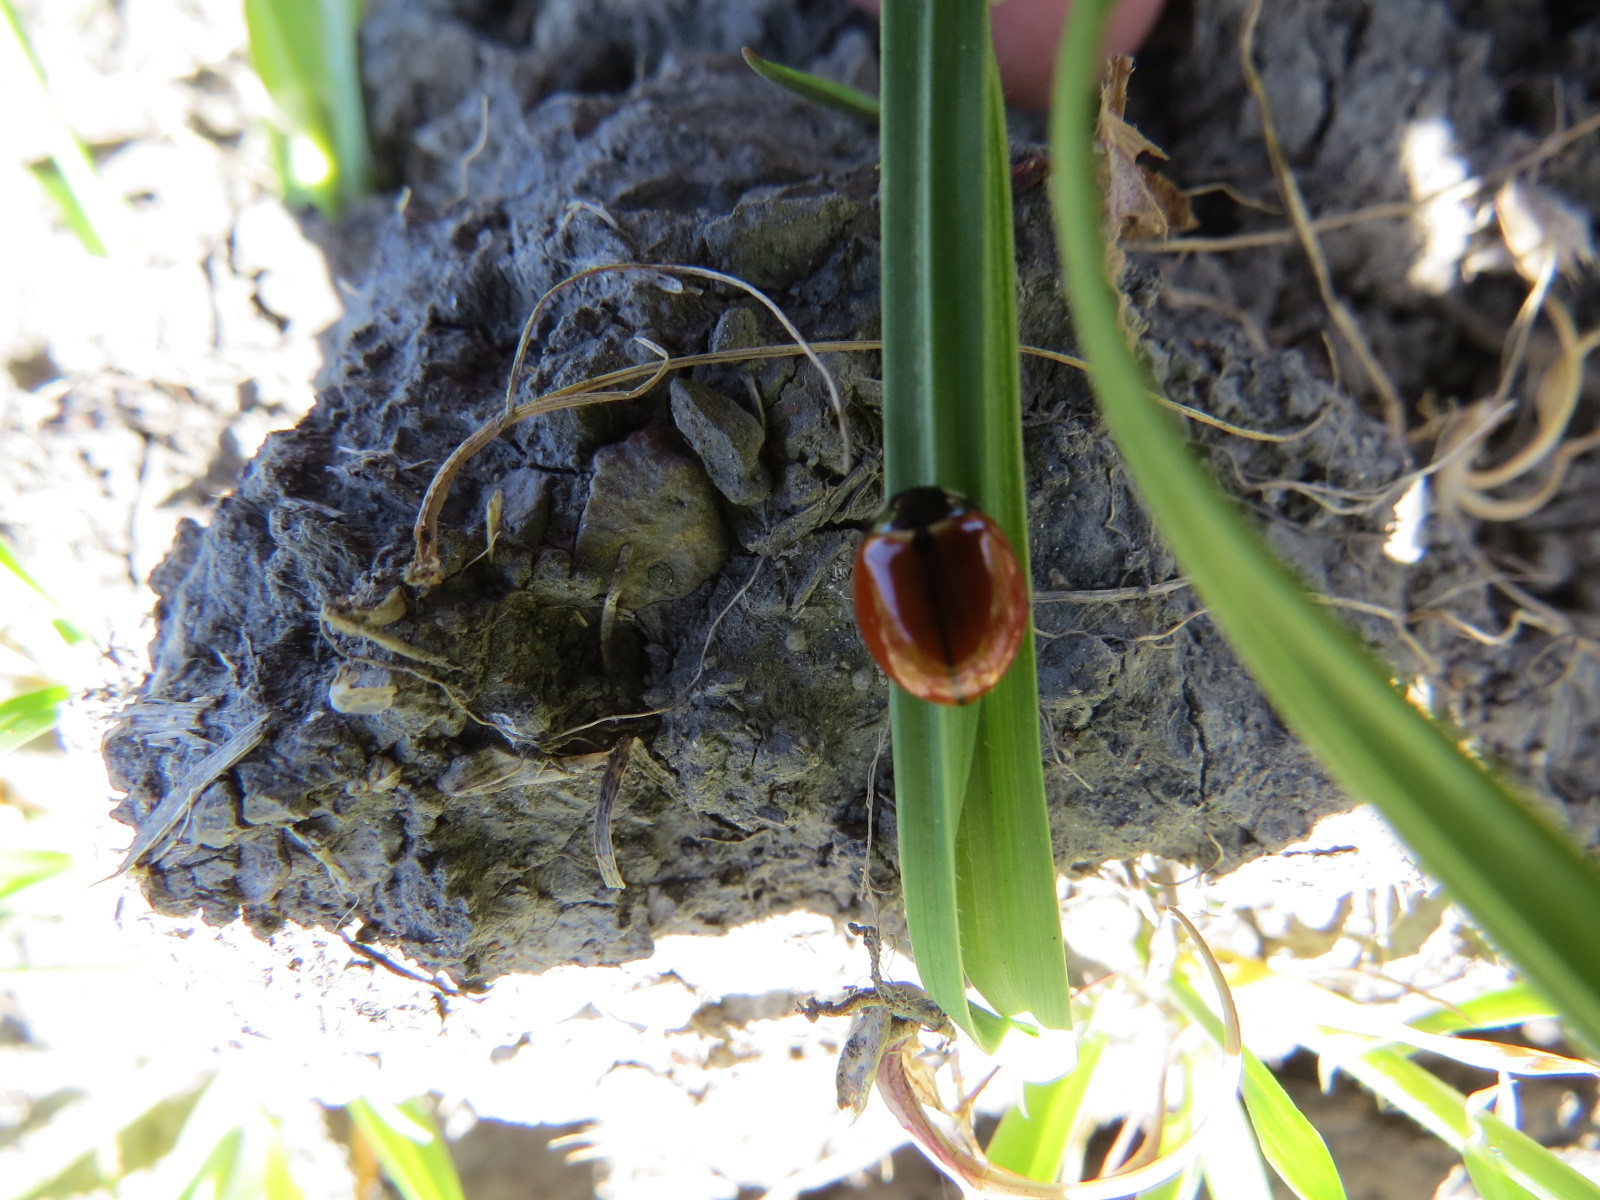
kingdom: Animalia
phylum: Arthropoda
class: Insecta
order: Coleoptera
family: Coccinellidae
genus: Coccinella
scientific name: Coccinella californica
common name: Lady beetle
